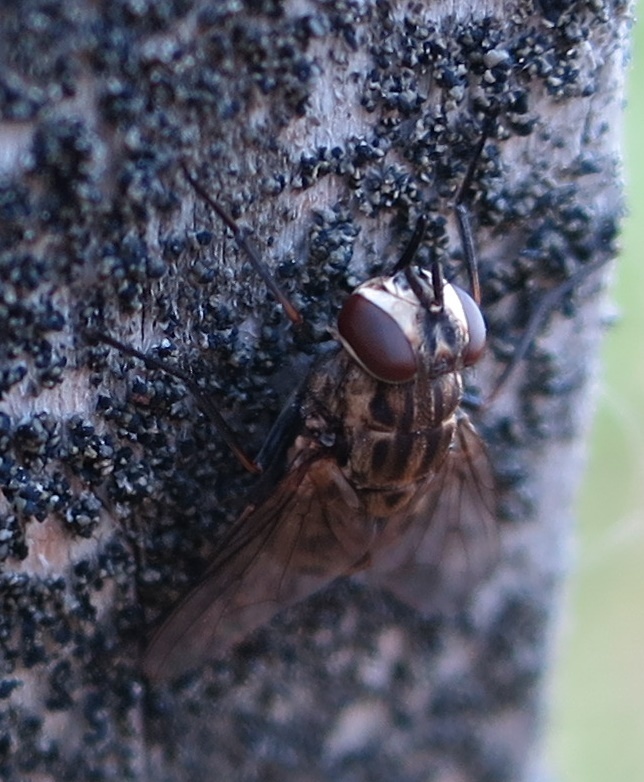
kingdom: Animalia
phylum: Arthropoda
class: Insecta
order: Diptera
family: Muscidae
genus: Stomoxys
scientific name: Stomoxys calcitrans
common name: Stable fly
